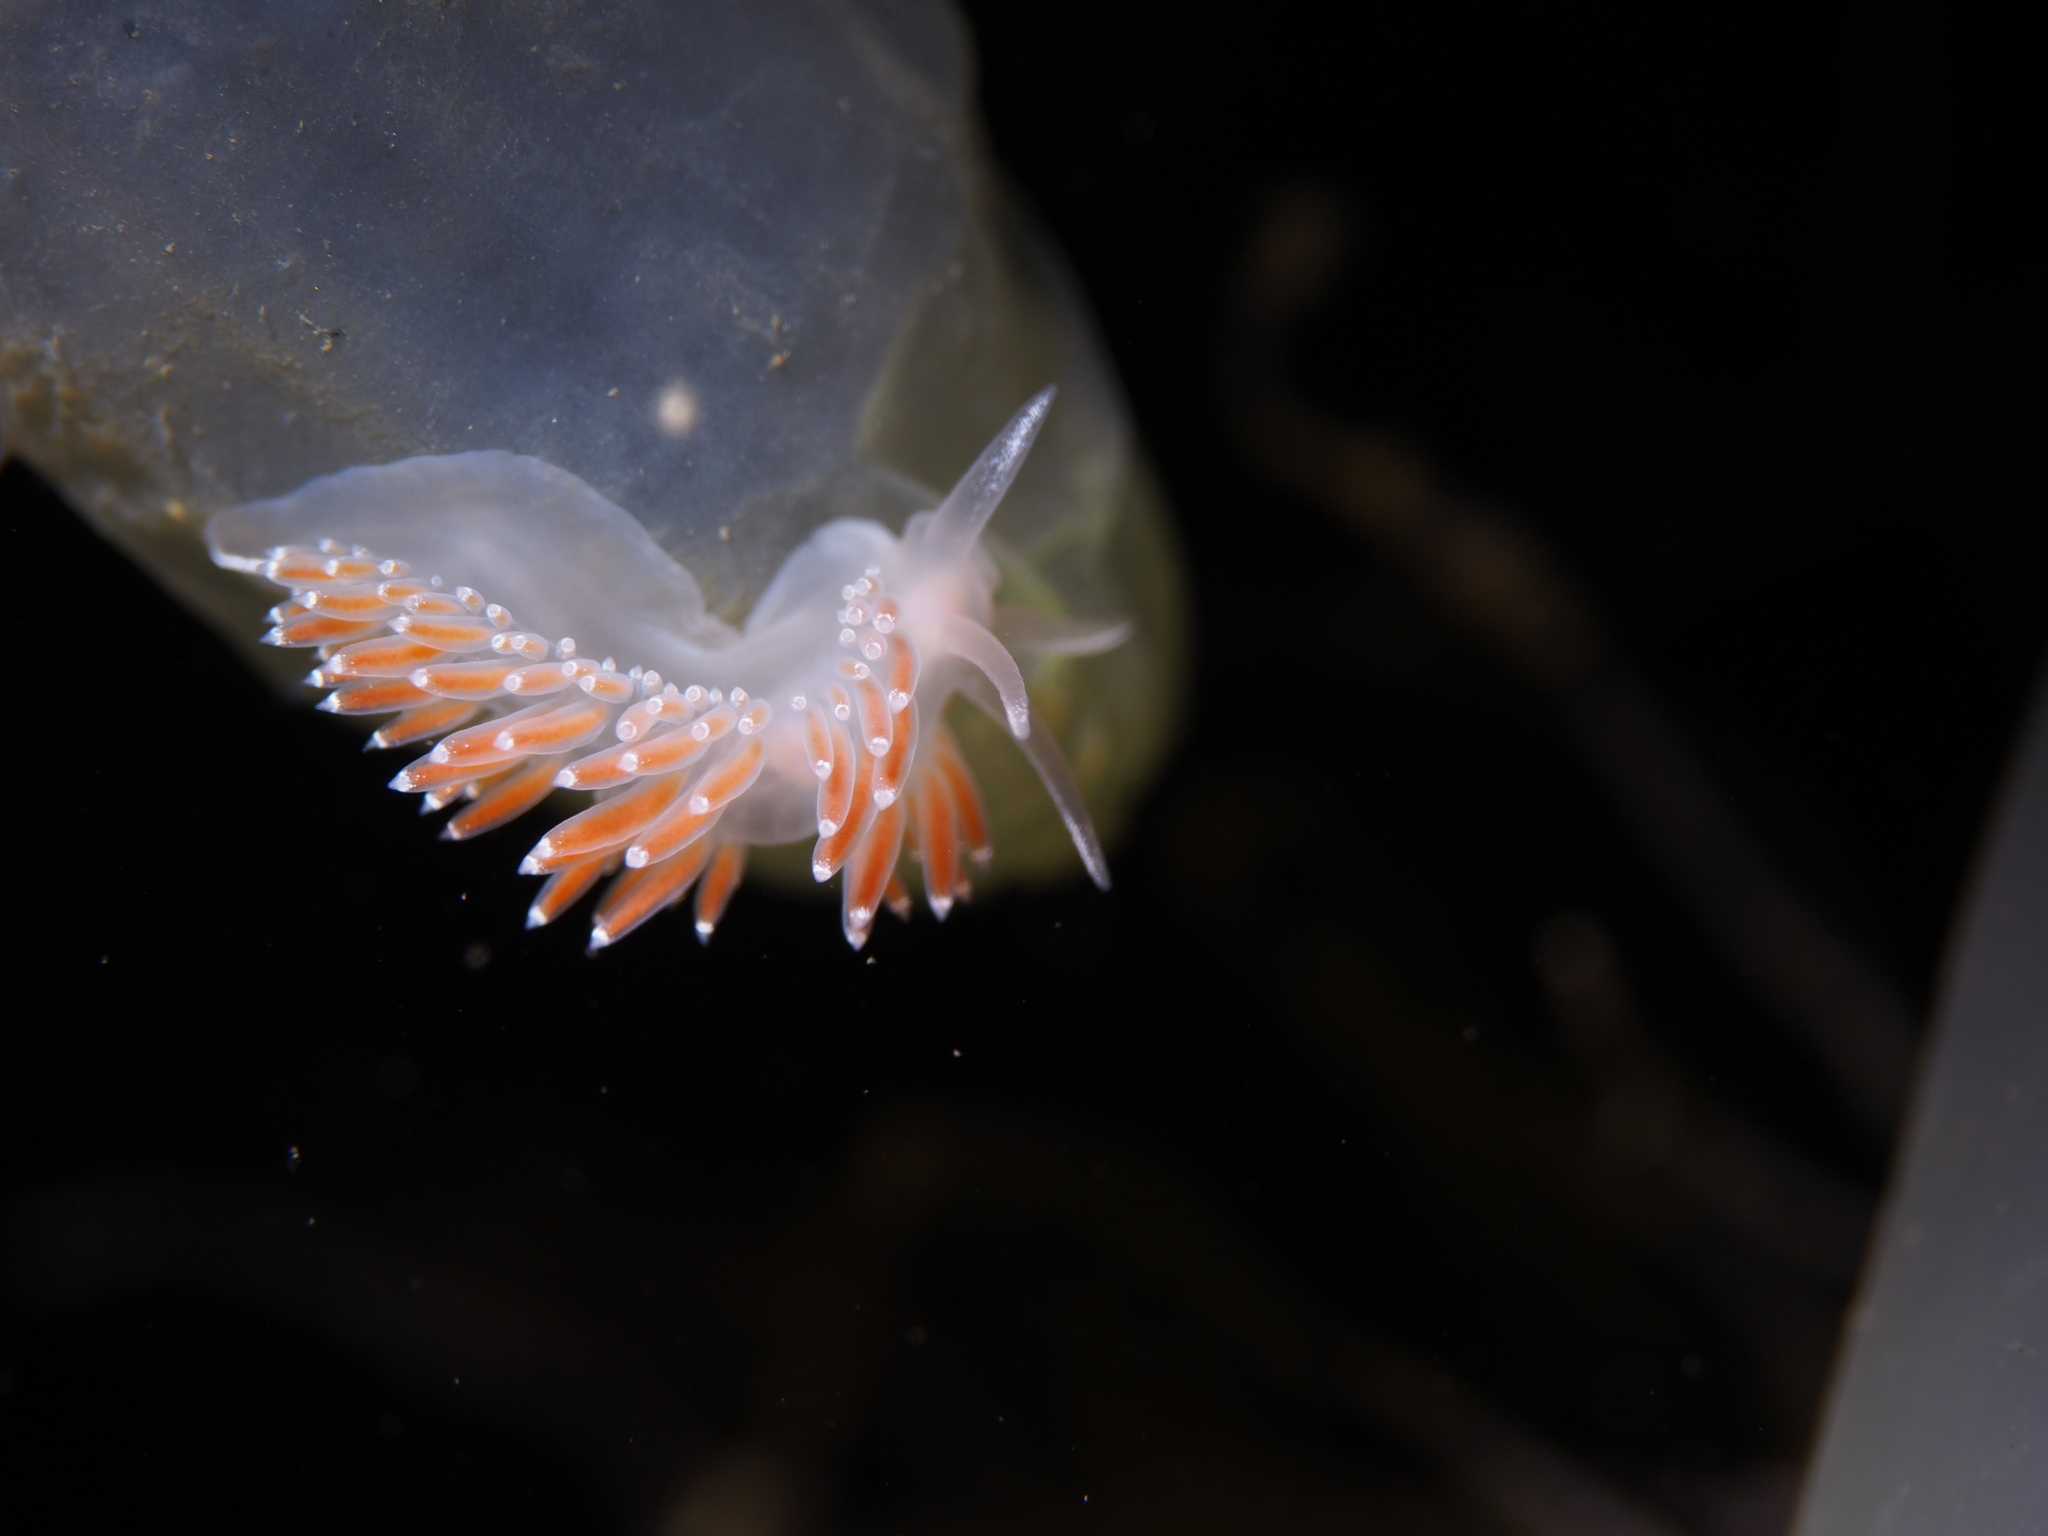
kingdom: Animalia
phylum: Mollusca
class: Gastropoda
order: Nudibranchia
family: Coryphellidae
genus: Coryphella
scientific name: Coryphella verrucosa
